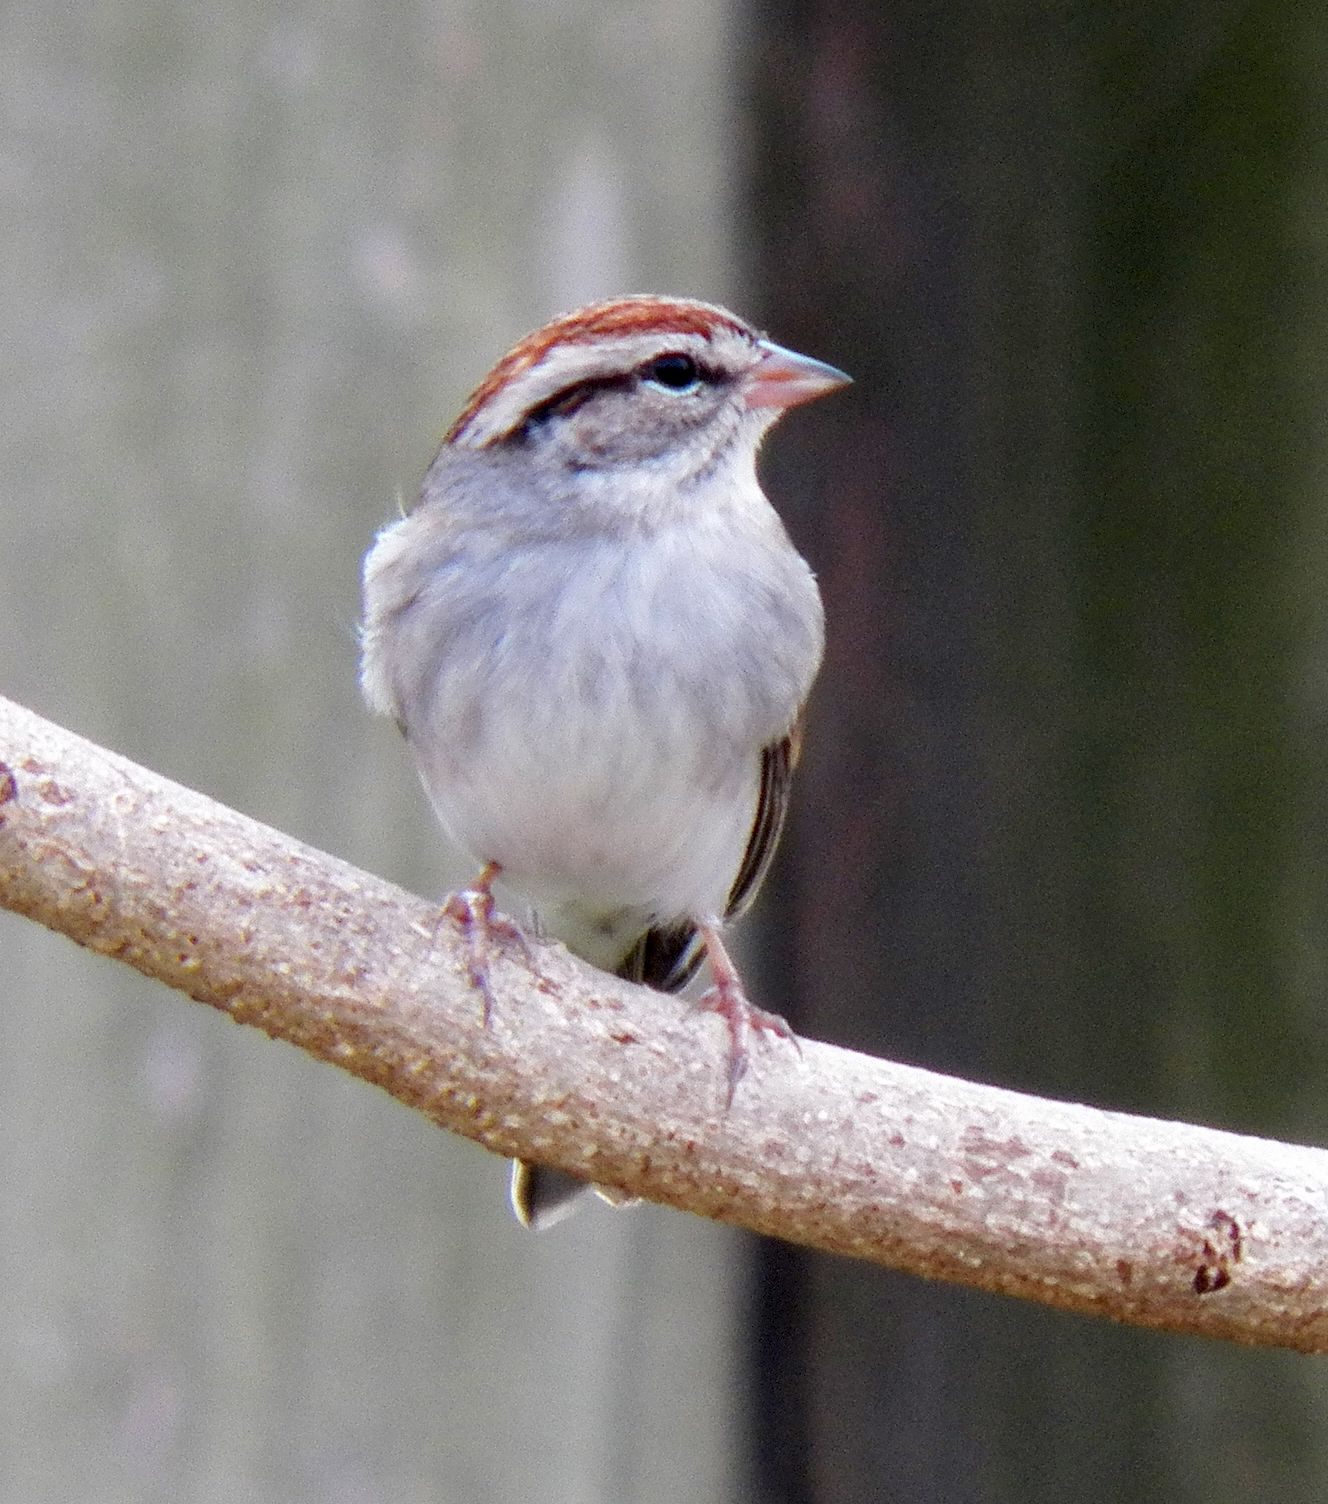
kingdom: Animalia
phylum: Chordata
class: Aves
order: Passeriformes
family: Passerellidae
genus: Spizella
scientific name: Spizella passerina
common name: Chipping sparrow
